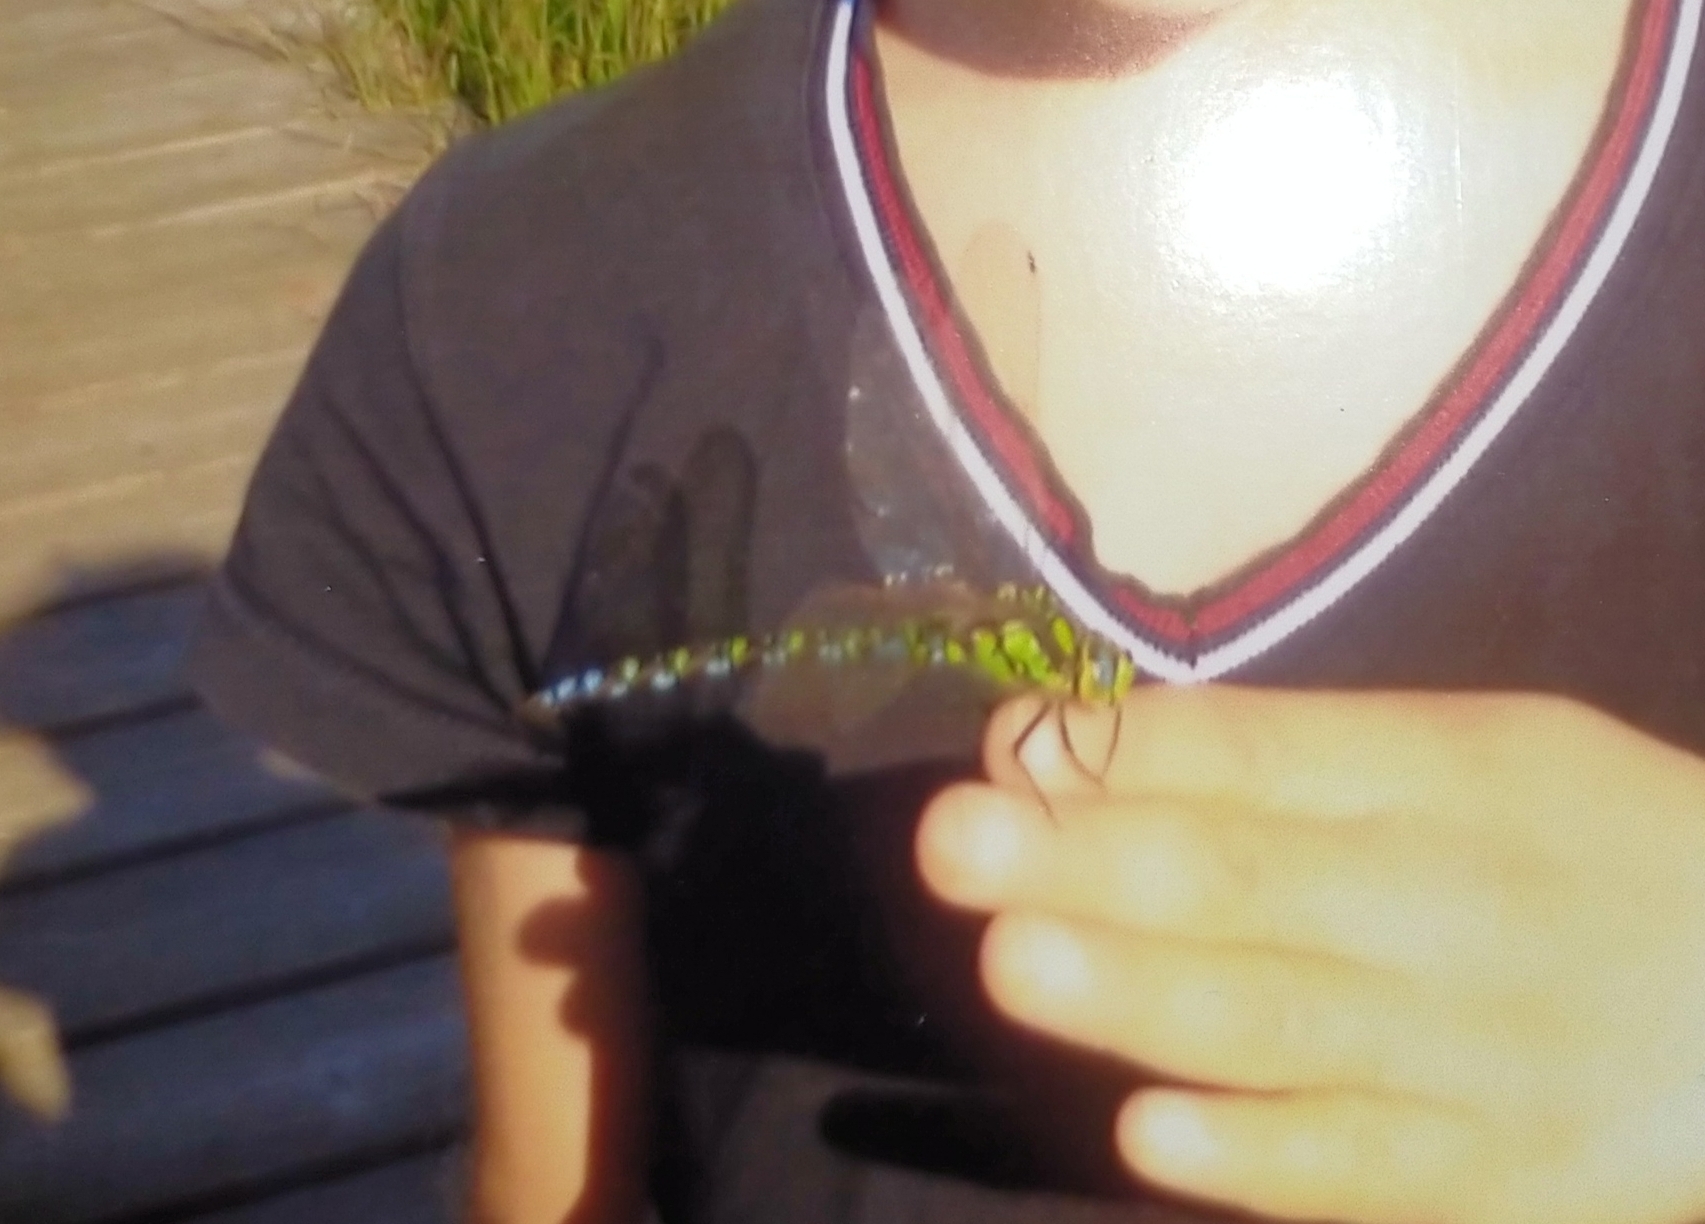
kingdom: Animalia
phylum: Arthropoda
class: Insecta
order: Odonata
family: Aeshnidae
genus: Aeshna
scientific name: Aeshna cyanea
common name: Southern hawker
